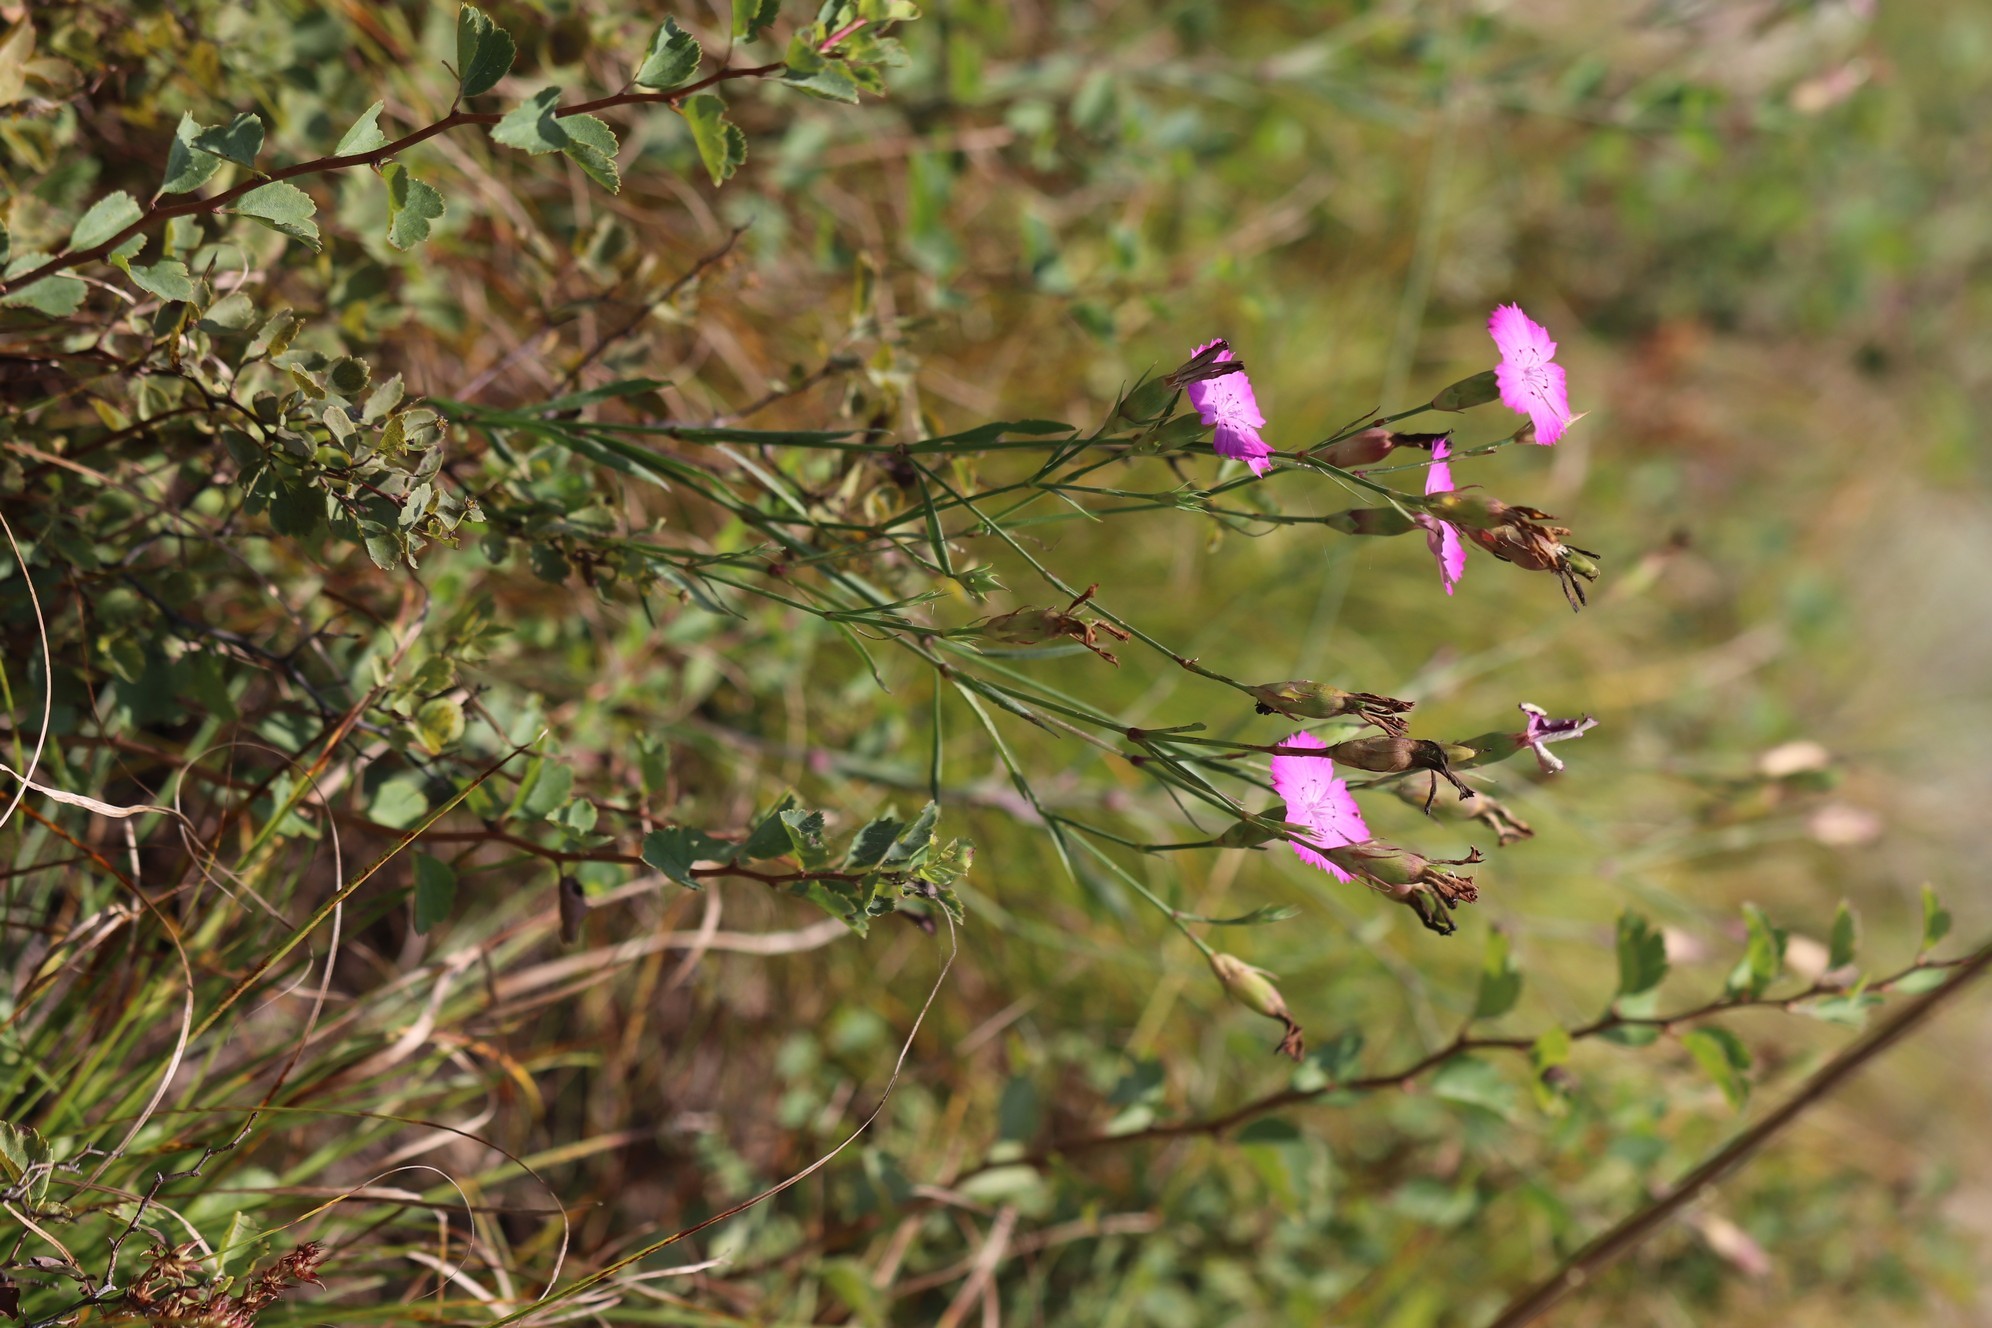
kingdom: Plantae
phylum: Tracheophyta
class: Magnoliopsida
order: Caryophyllales
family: Caryophyllaceae
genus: Dianthus
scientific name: Dianthus chinensis
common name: Rainbow pink
